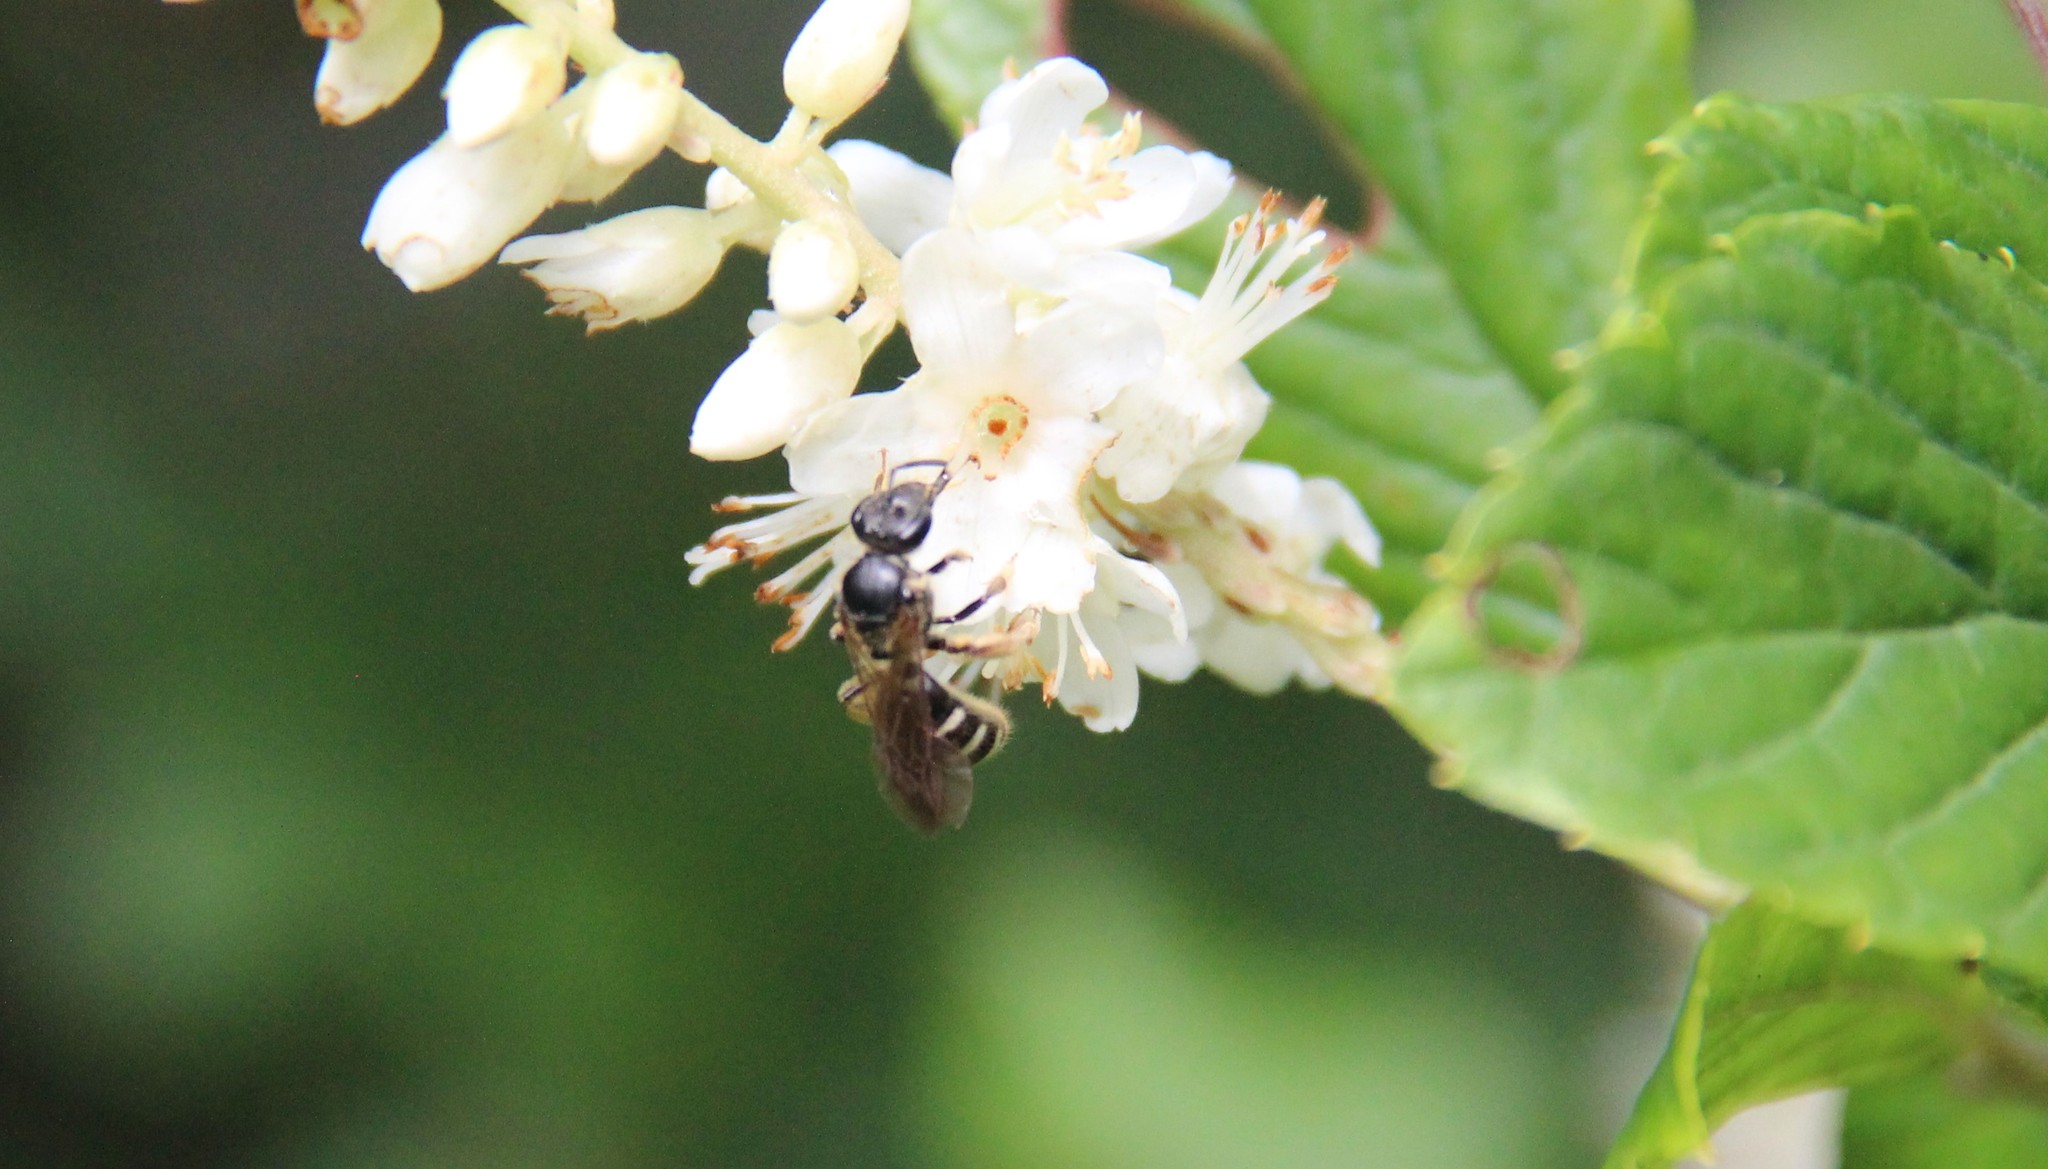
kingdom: Animalia
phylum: Arthropoda
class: Insecta
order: Hymenoptera
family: Halictidae
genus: Lasioglossum
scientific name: Lasioglossum
